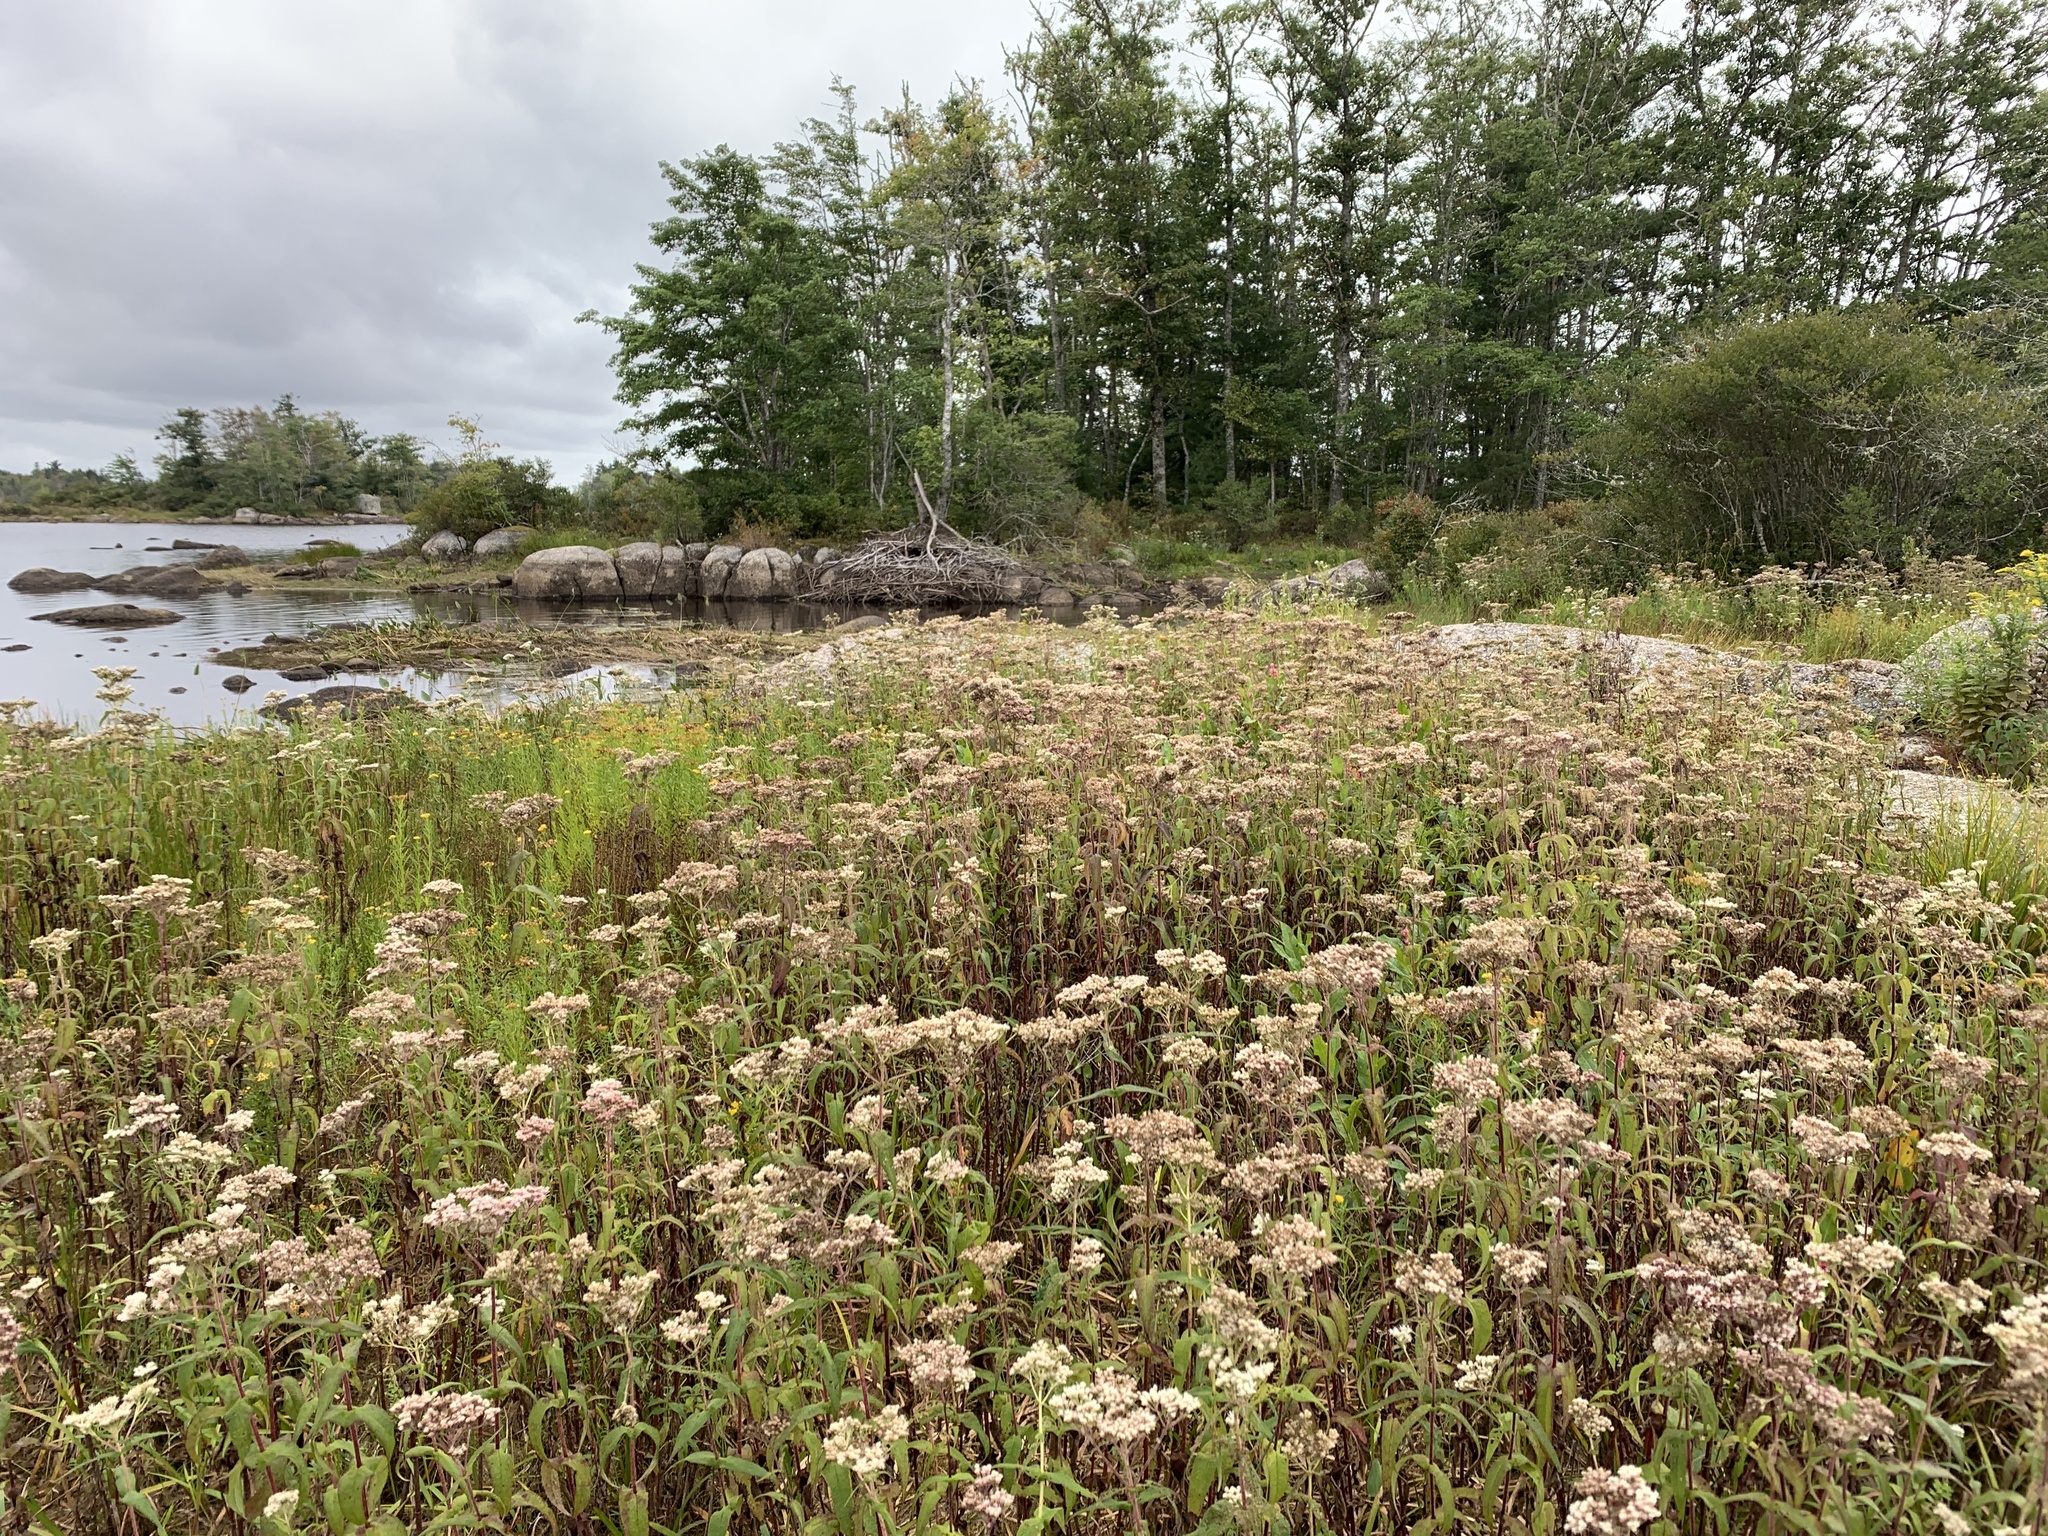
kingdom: Plantae
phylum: Tracheophyta
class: Magnoliopsida
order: Asterales
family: Asteraceae
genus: Eupatorium
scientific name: Eupatorium perfoliatum
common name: Boneset
